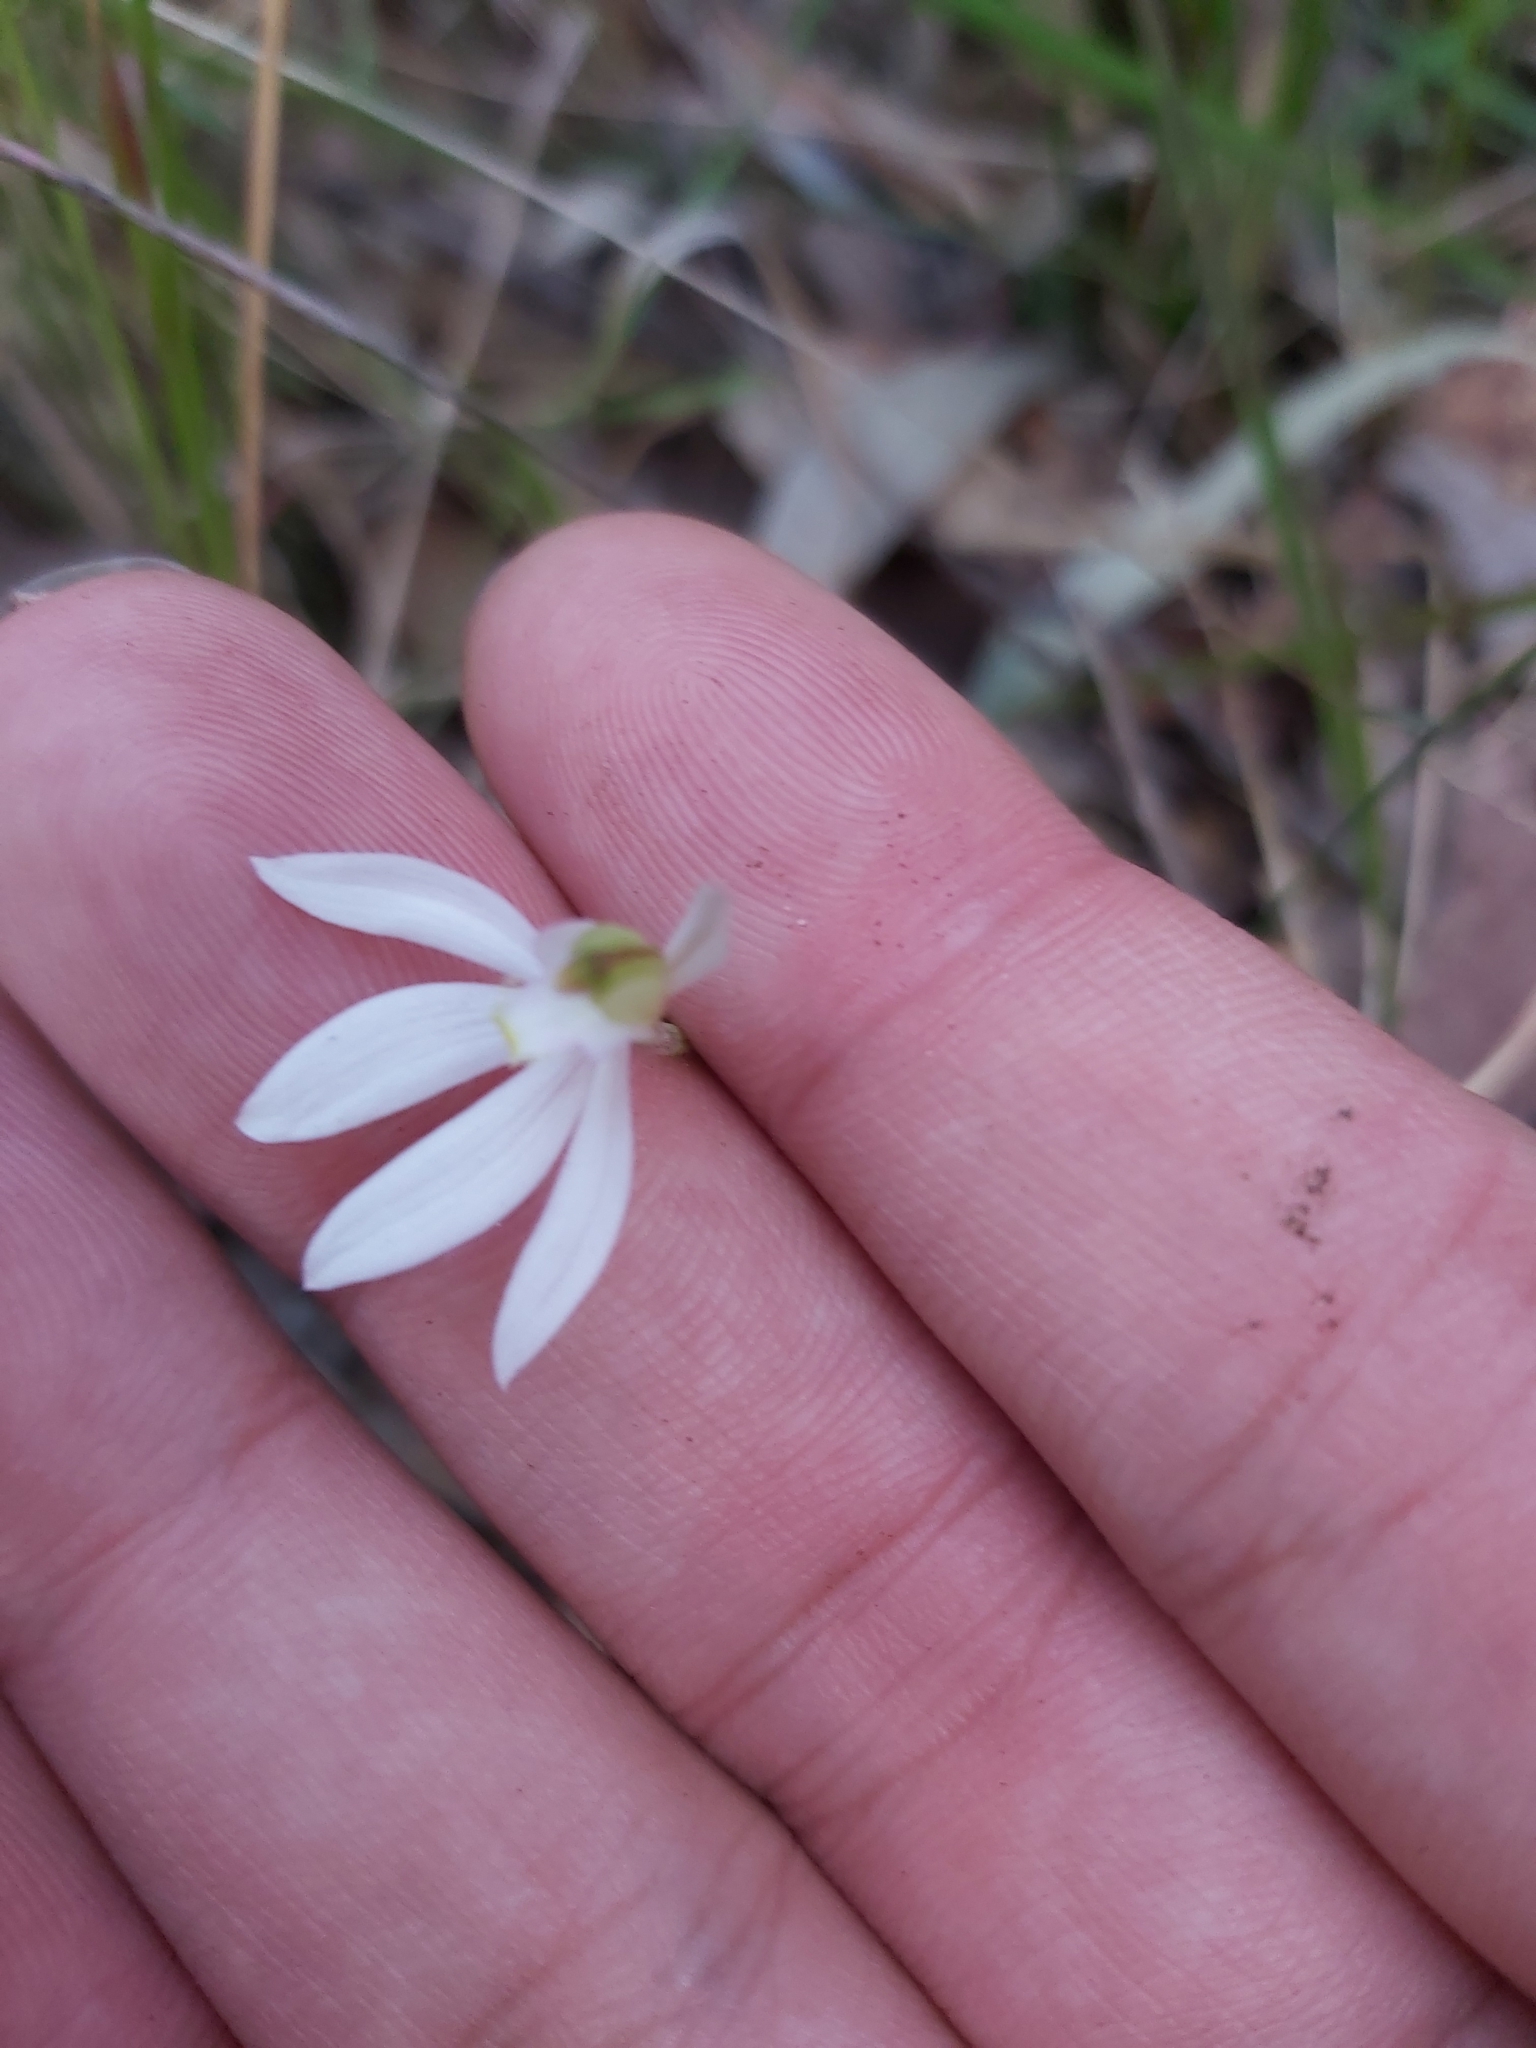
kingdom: Plantae
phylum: Tracheophyta
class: Liliopsida
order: Asparagales
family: Orchidaceae
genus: Caladenia
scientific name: Caladenia catenata
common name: White caladenia
